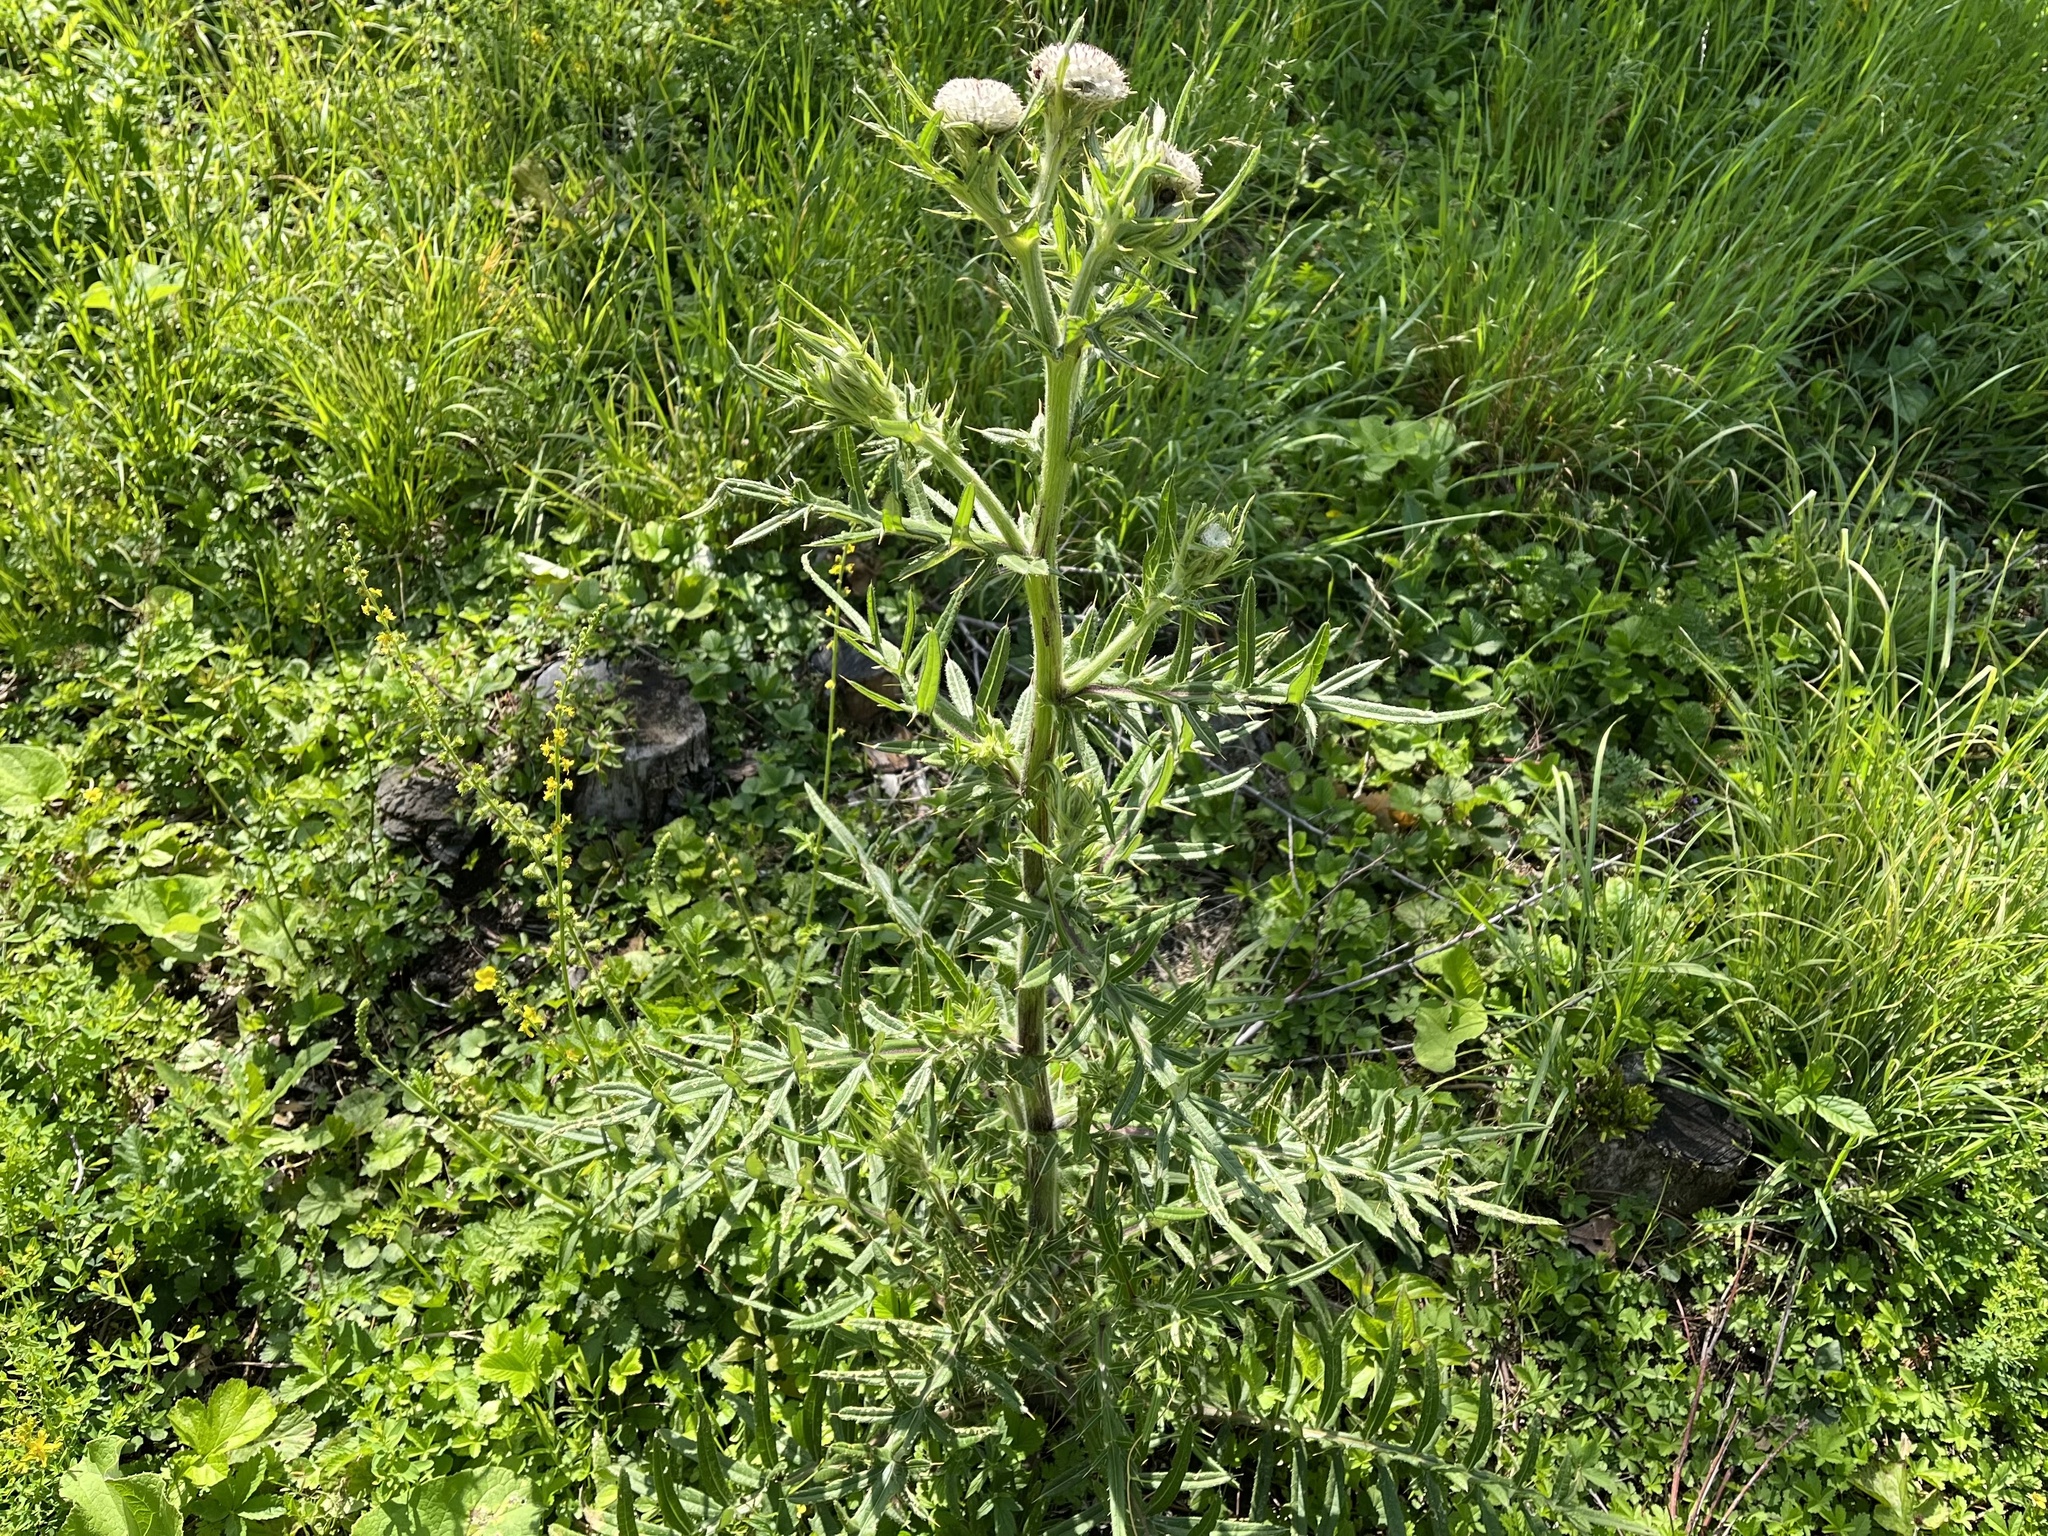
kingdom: Plantae
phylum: Tracheophyta
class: Magnoliopsida
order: Asterales
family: Asteraceae
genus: Lophiolepis
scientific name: Lophiolepis eriophora
